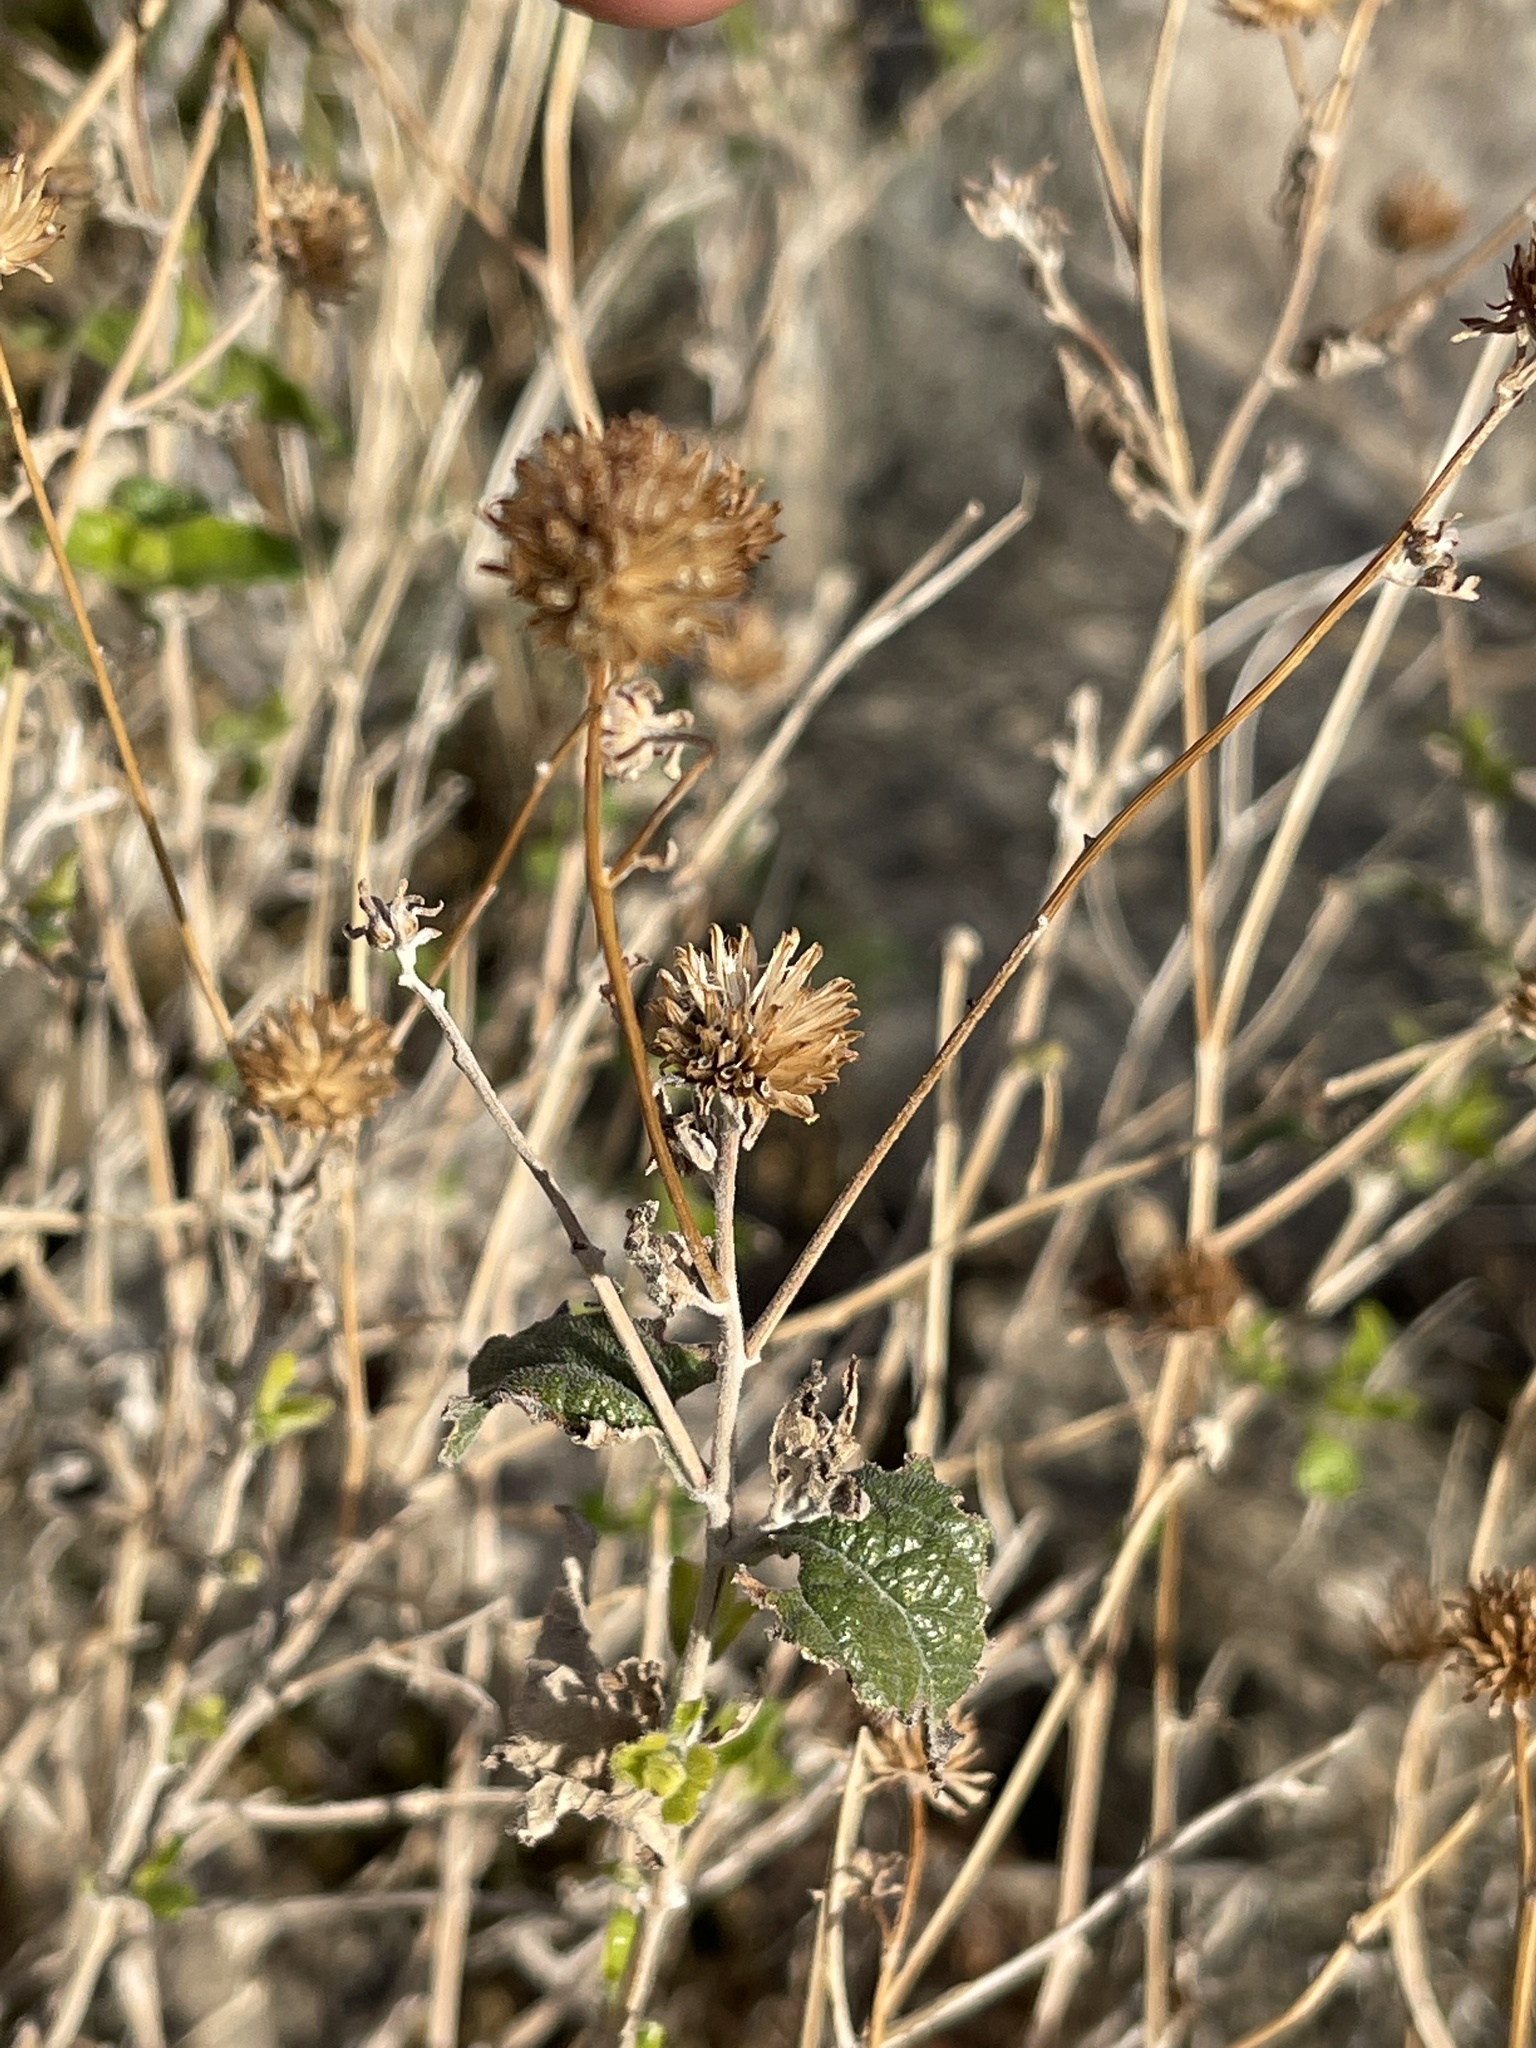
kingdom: Plantae
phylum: Tracheophyta
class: Magnoliopsida
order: Asterales
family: Asteraceae
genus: Bahiopsis
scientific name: Bahiopsis parishii
